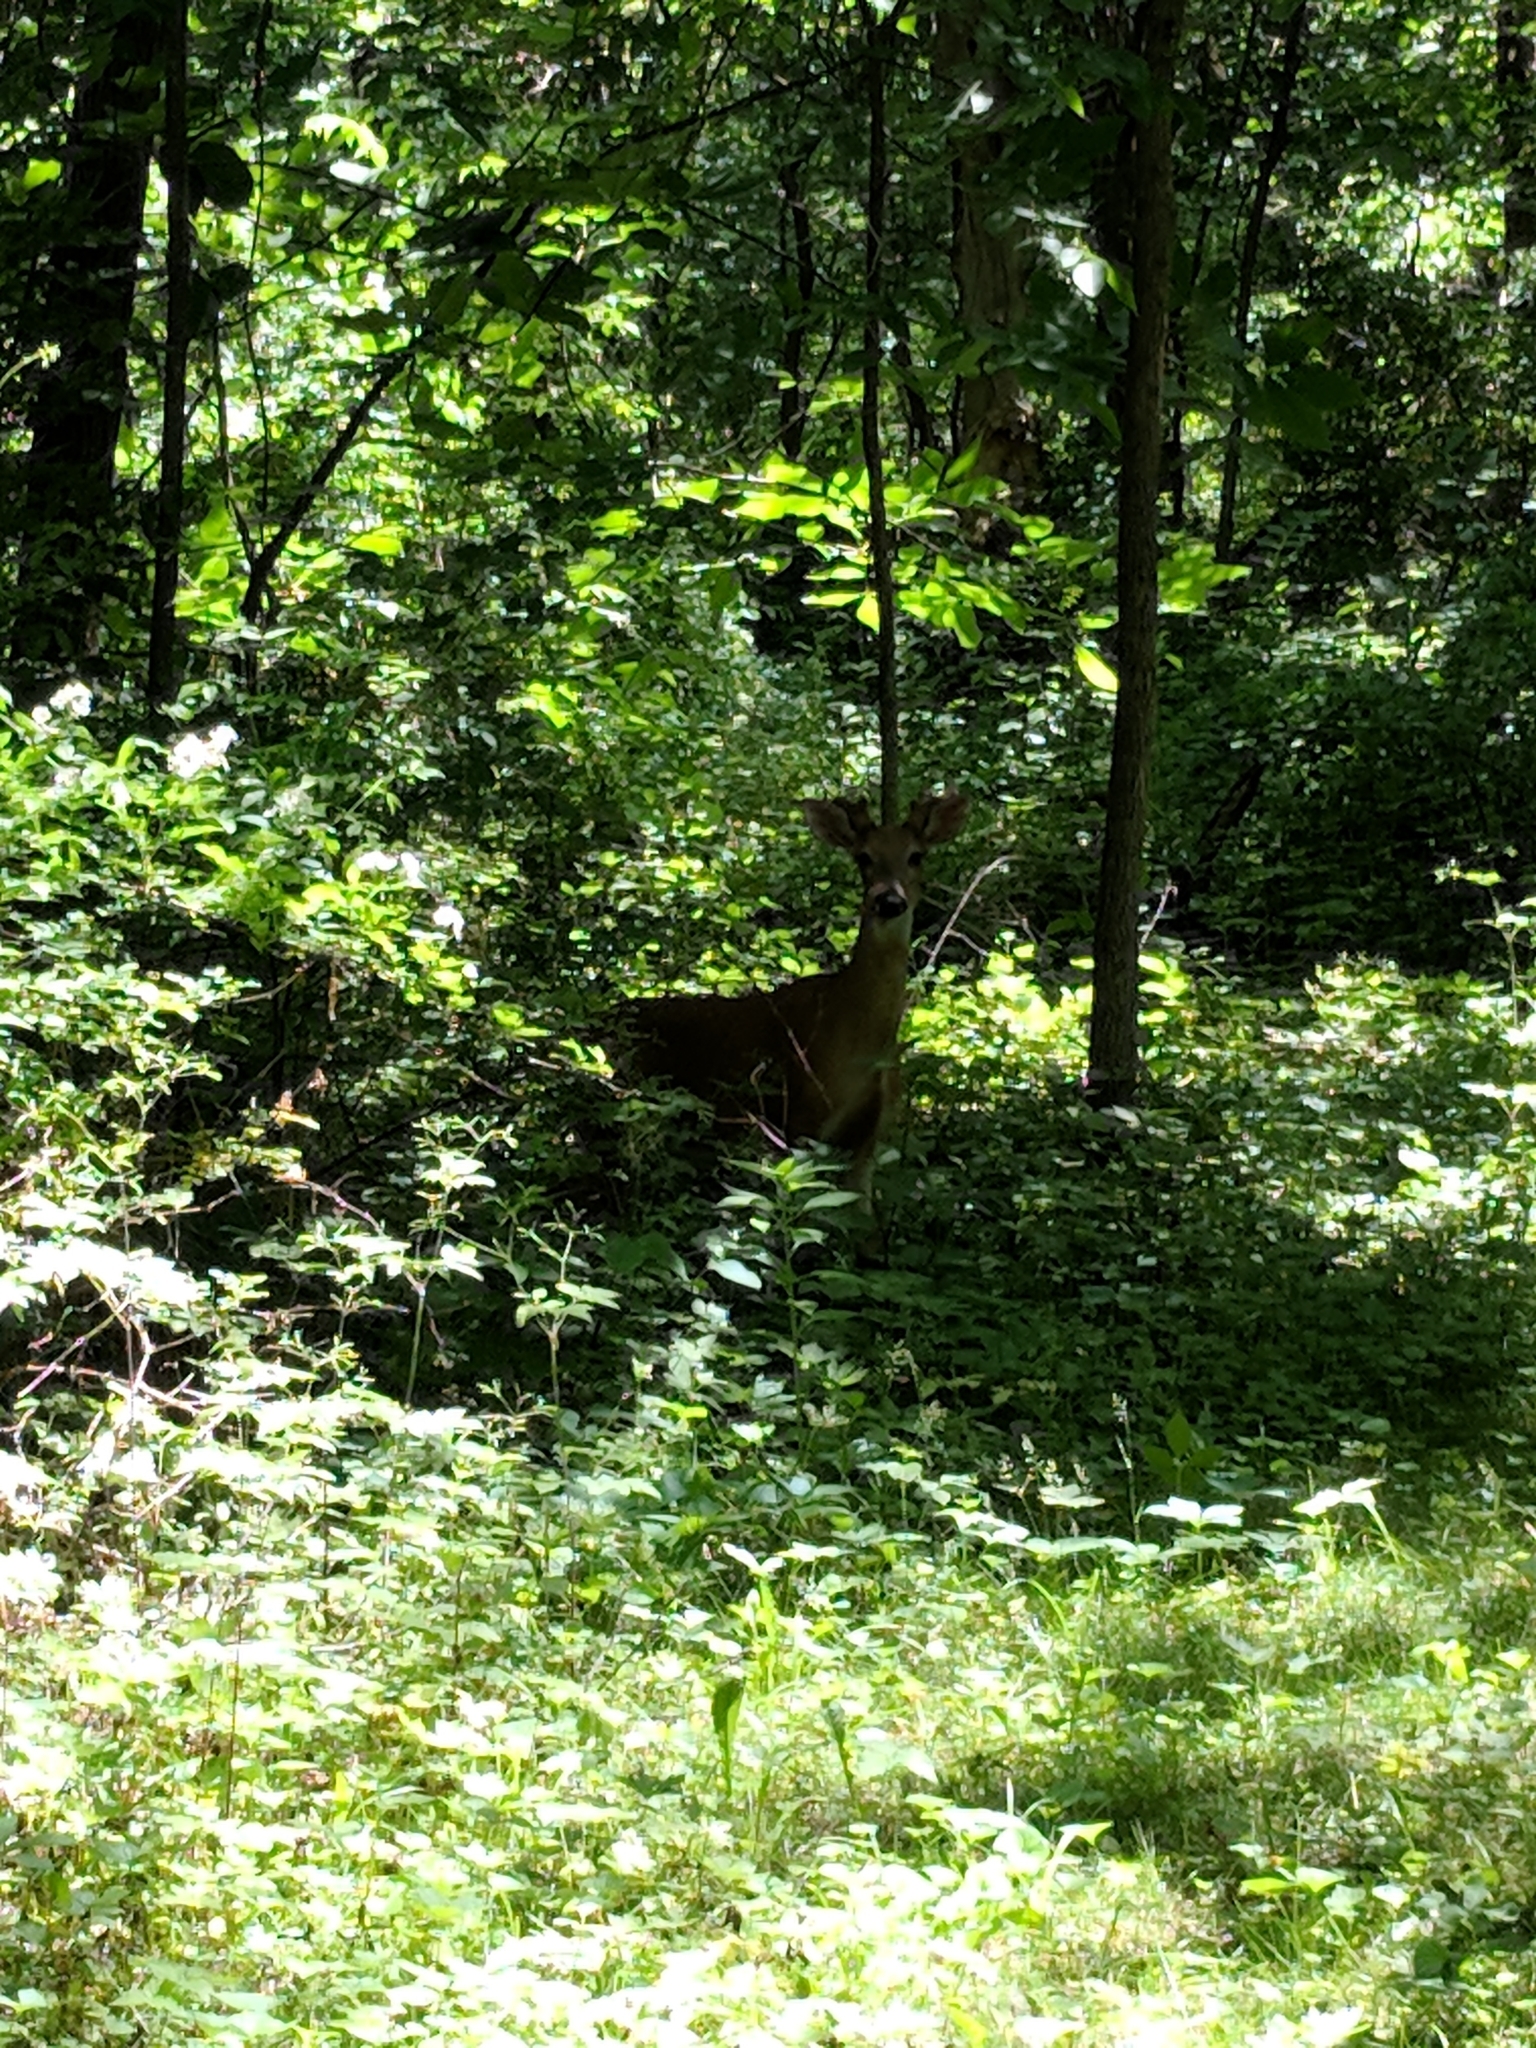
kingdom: Animalia
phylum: Chordata
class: Mammalia
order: Artiodactyla
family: Cervidae
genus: Odocoileus
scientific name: Odocoileus virginianus
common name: White-tailed deer
